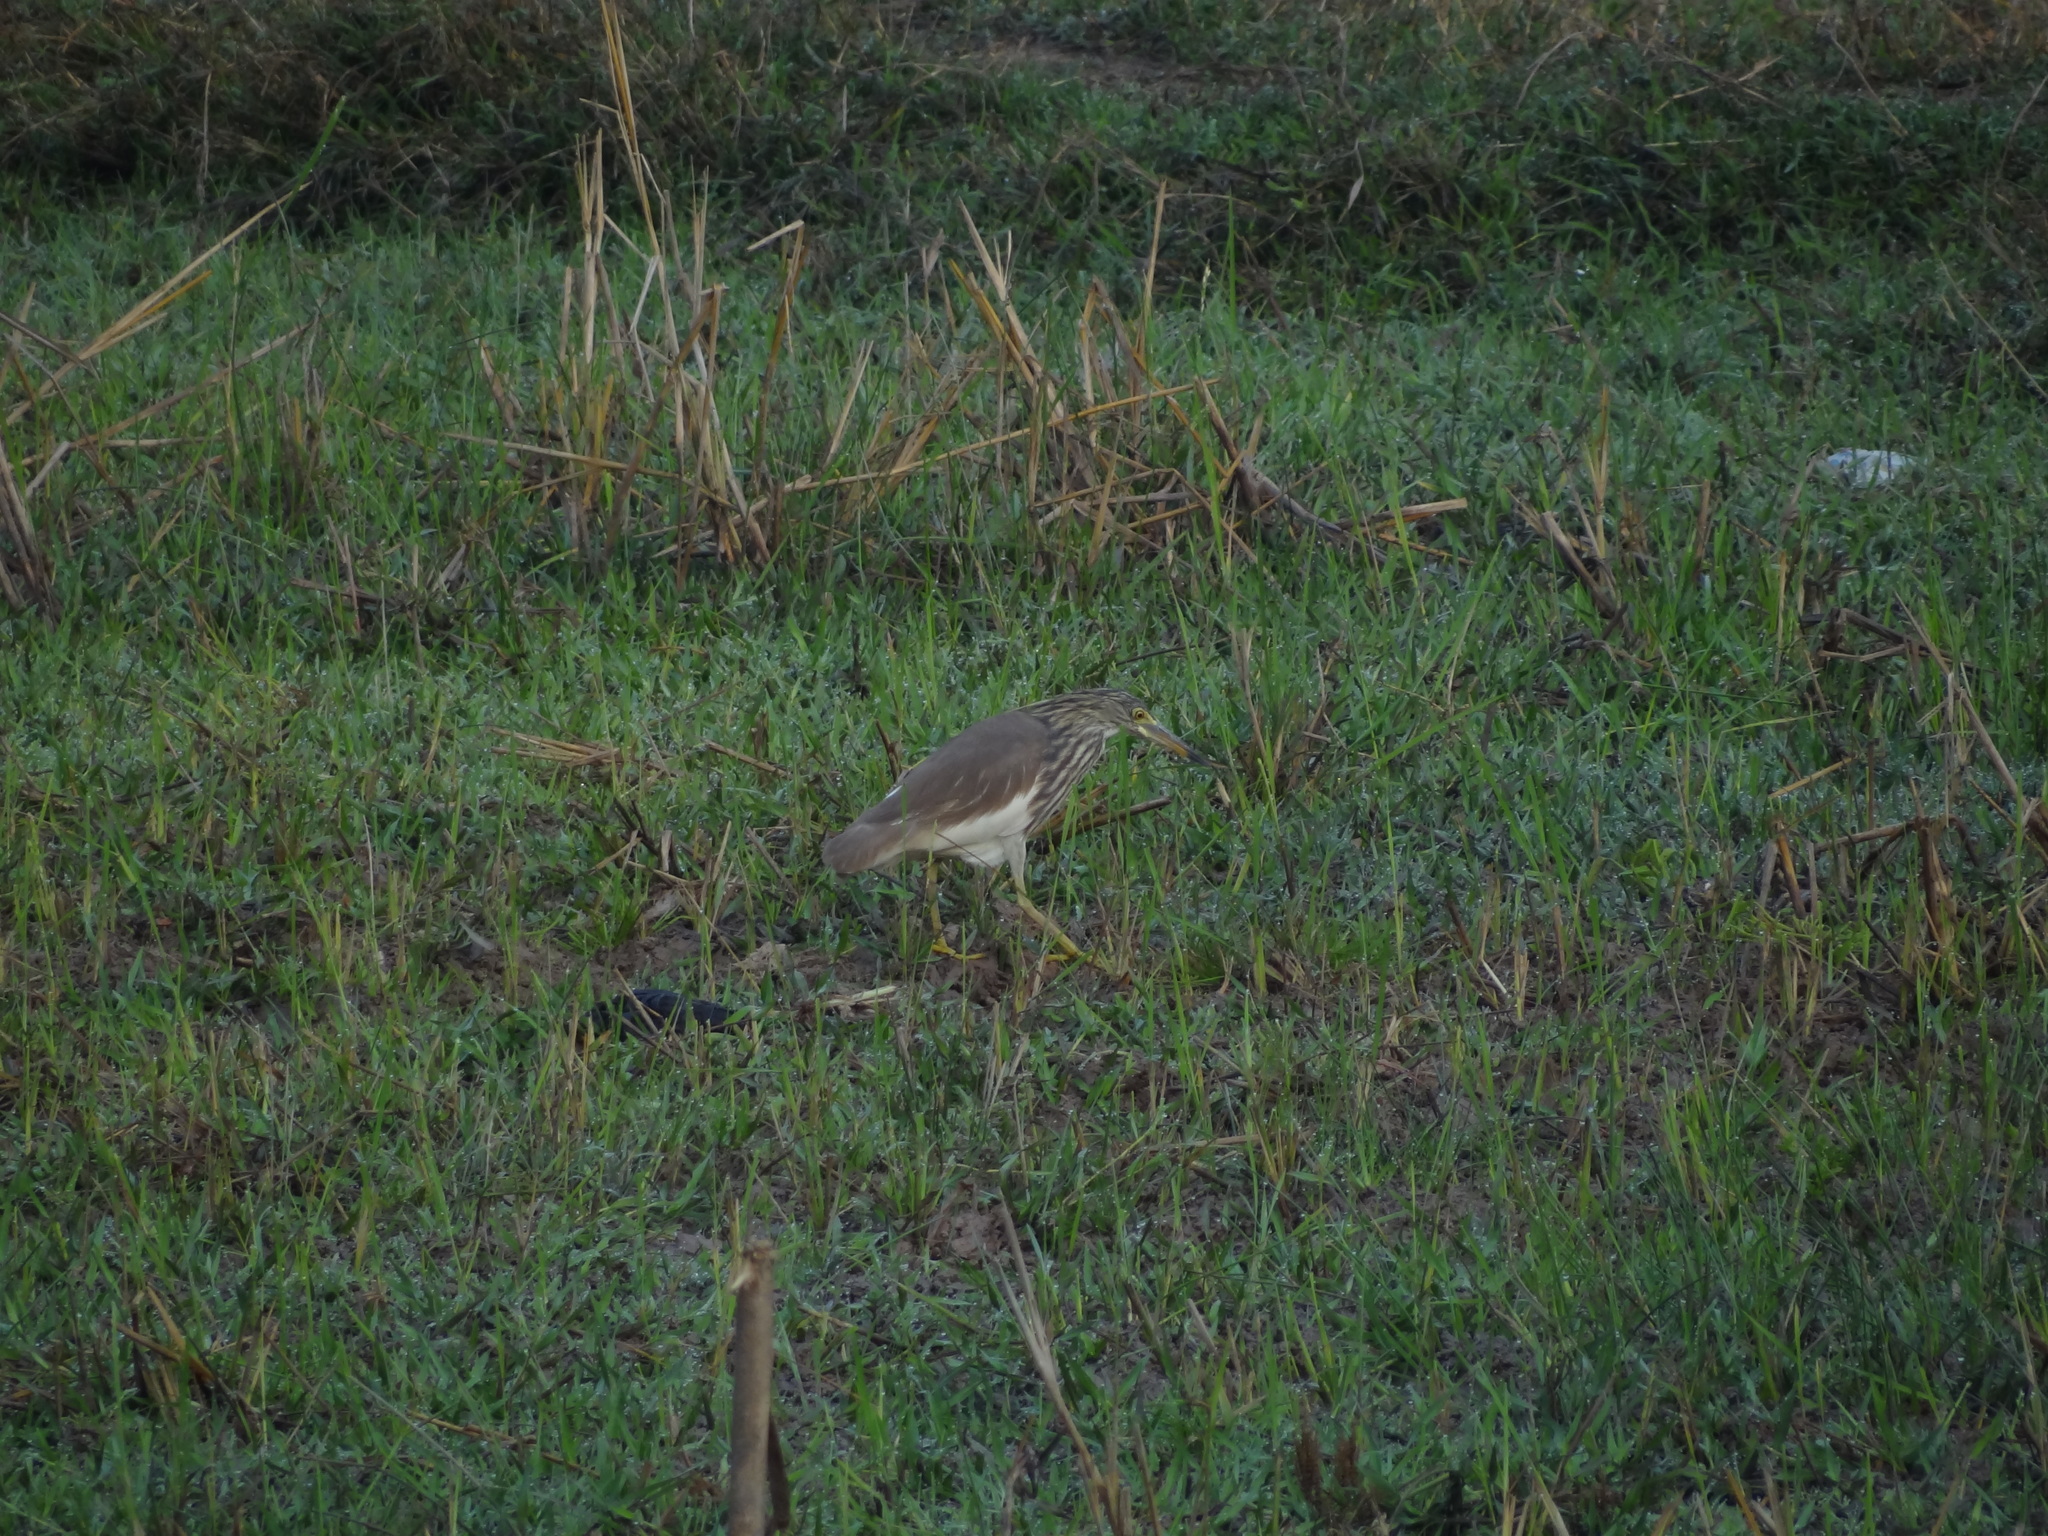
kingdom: Animalia
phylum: Chordata
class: Aves
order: Pelecaniformes
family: Ardeidae
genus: Ardeola
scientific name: Ardeola bacchus
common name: Chinese pond heron
